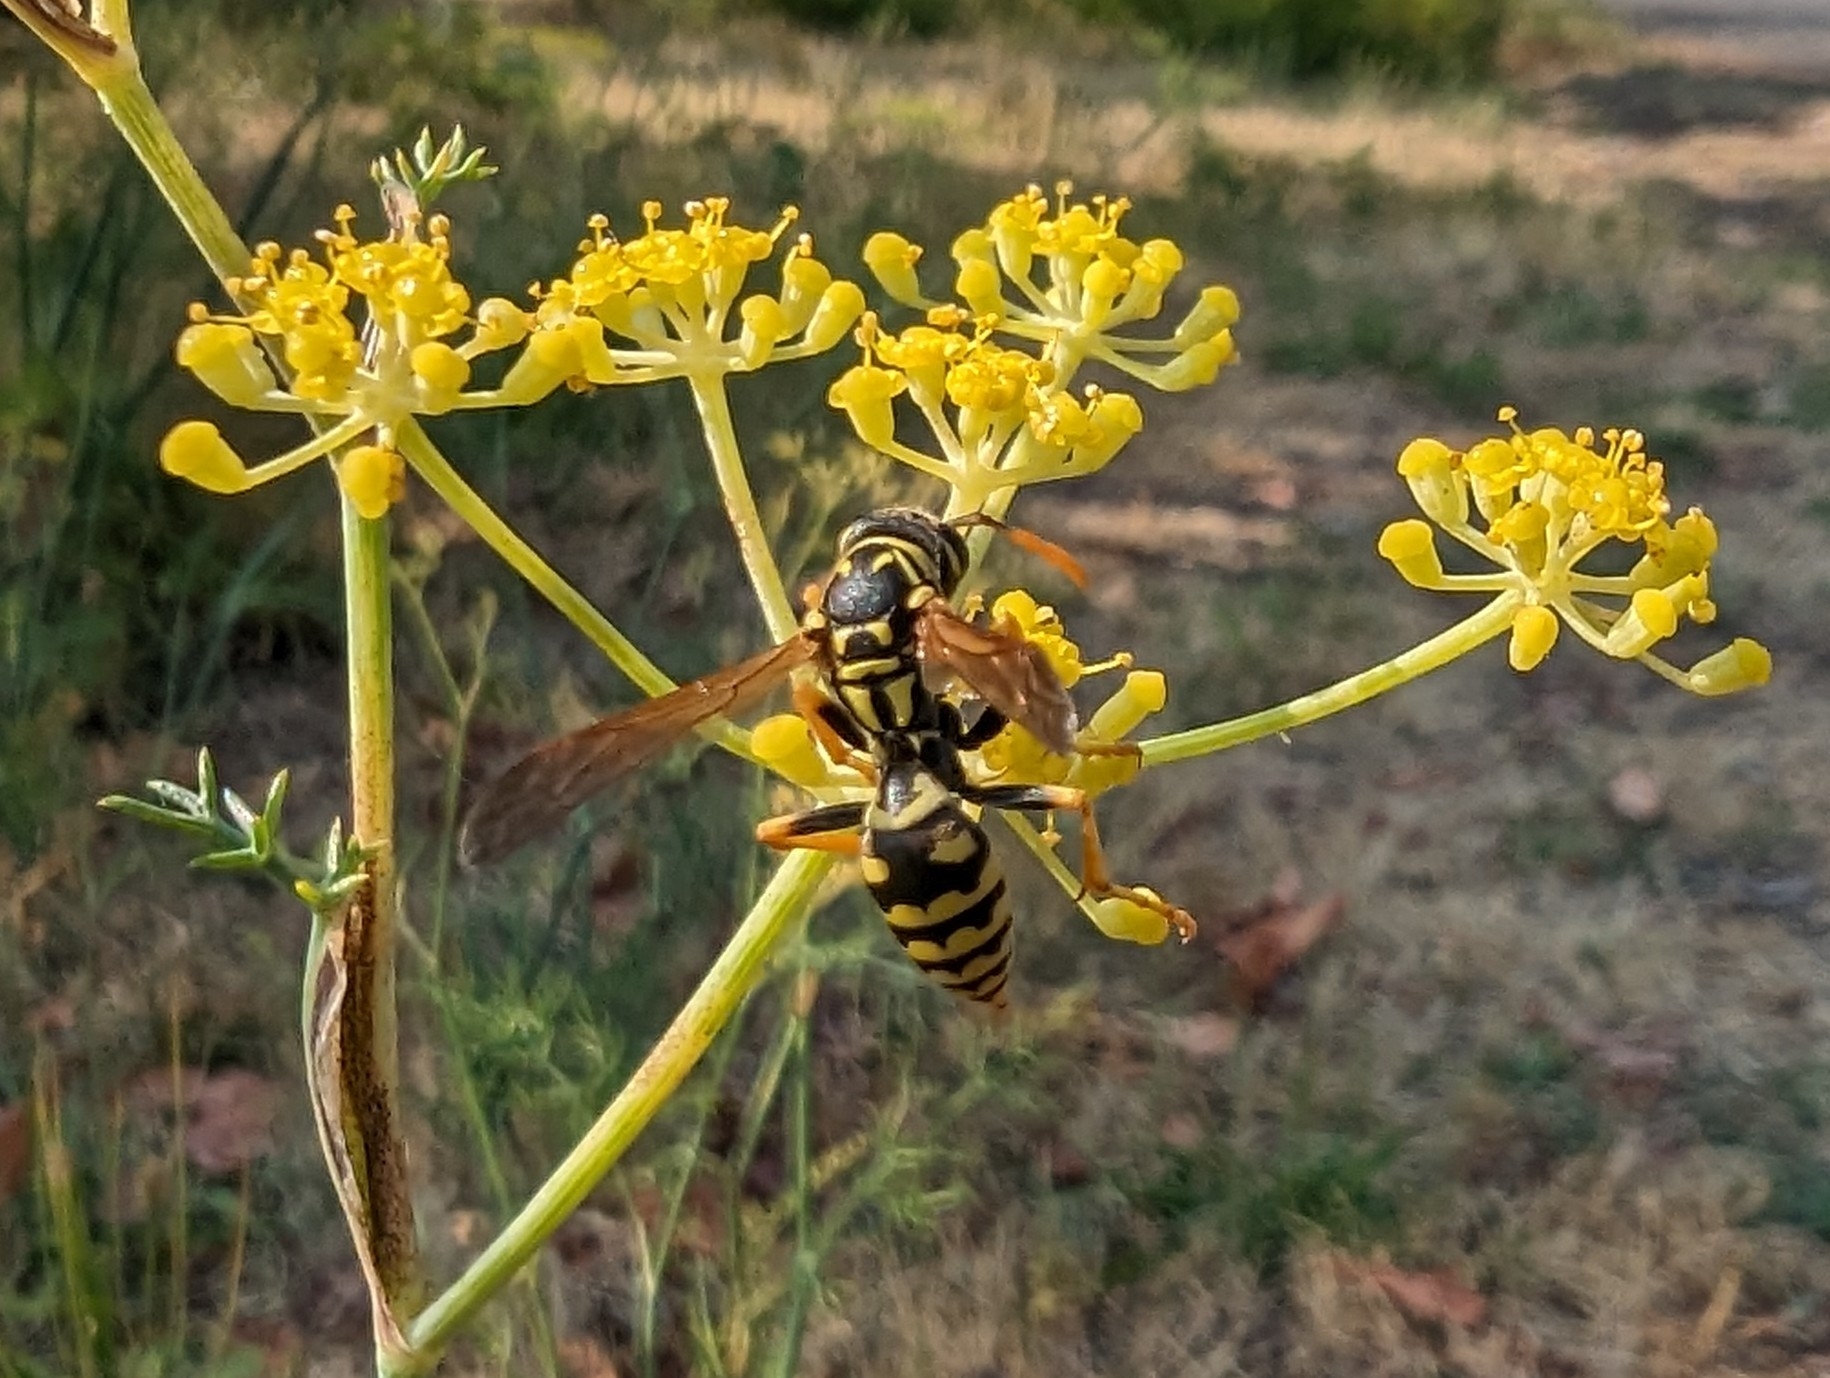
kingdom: Animalia
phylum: Arthropoda
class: Insecta
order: Hymenoptera
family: Eumenidae
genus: Polistes
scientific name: Polistes dominula
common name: Paper wasp
